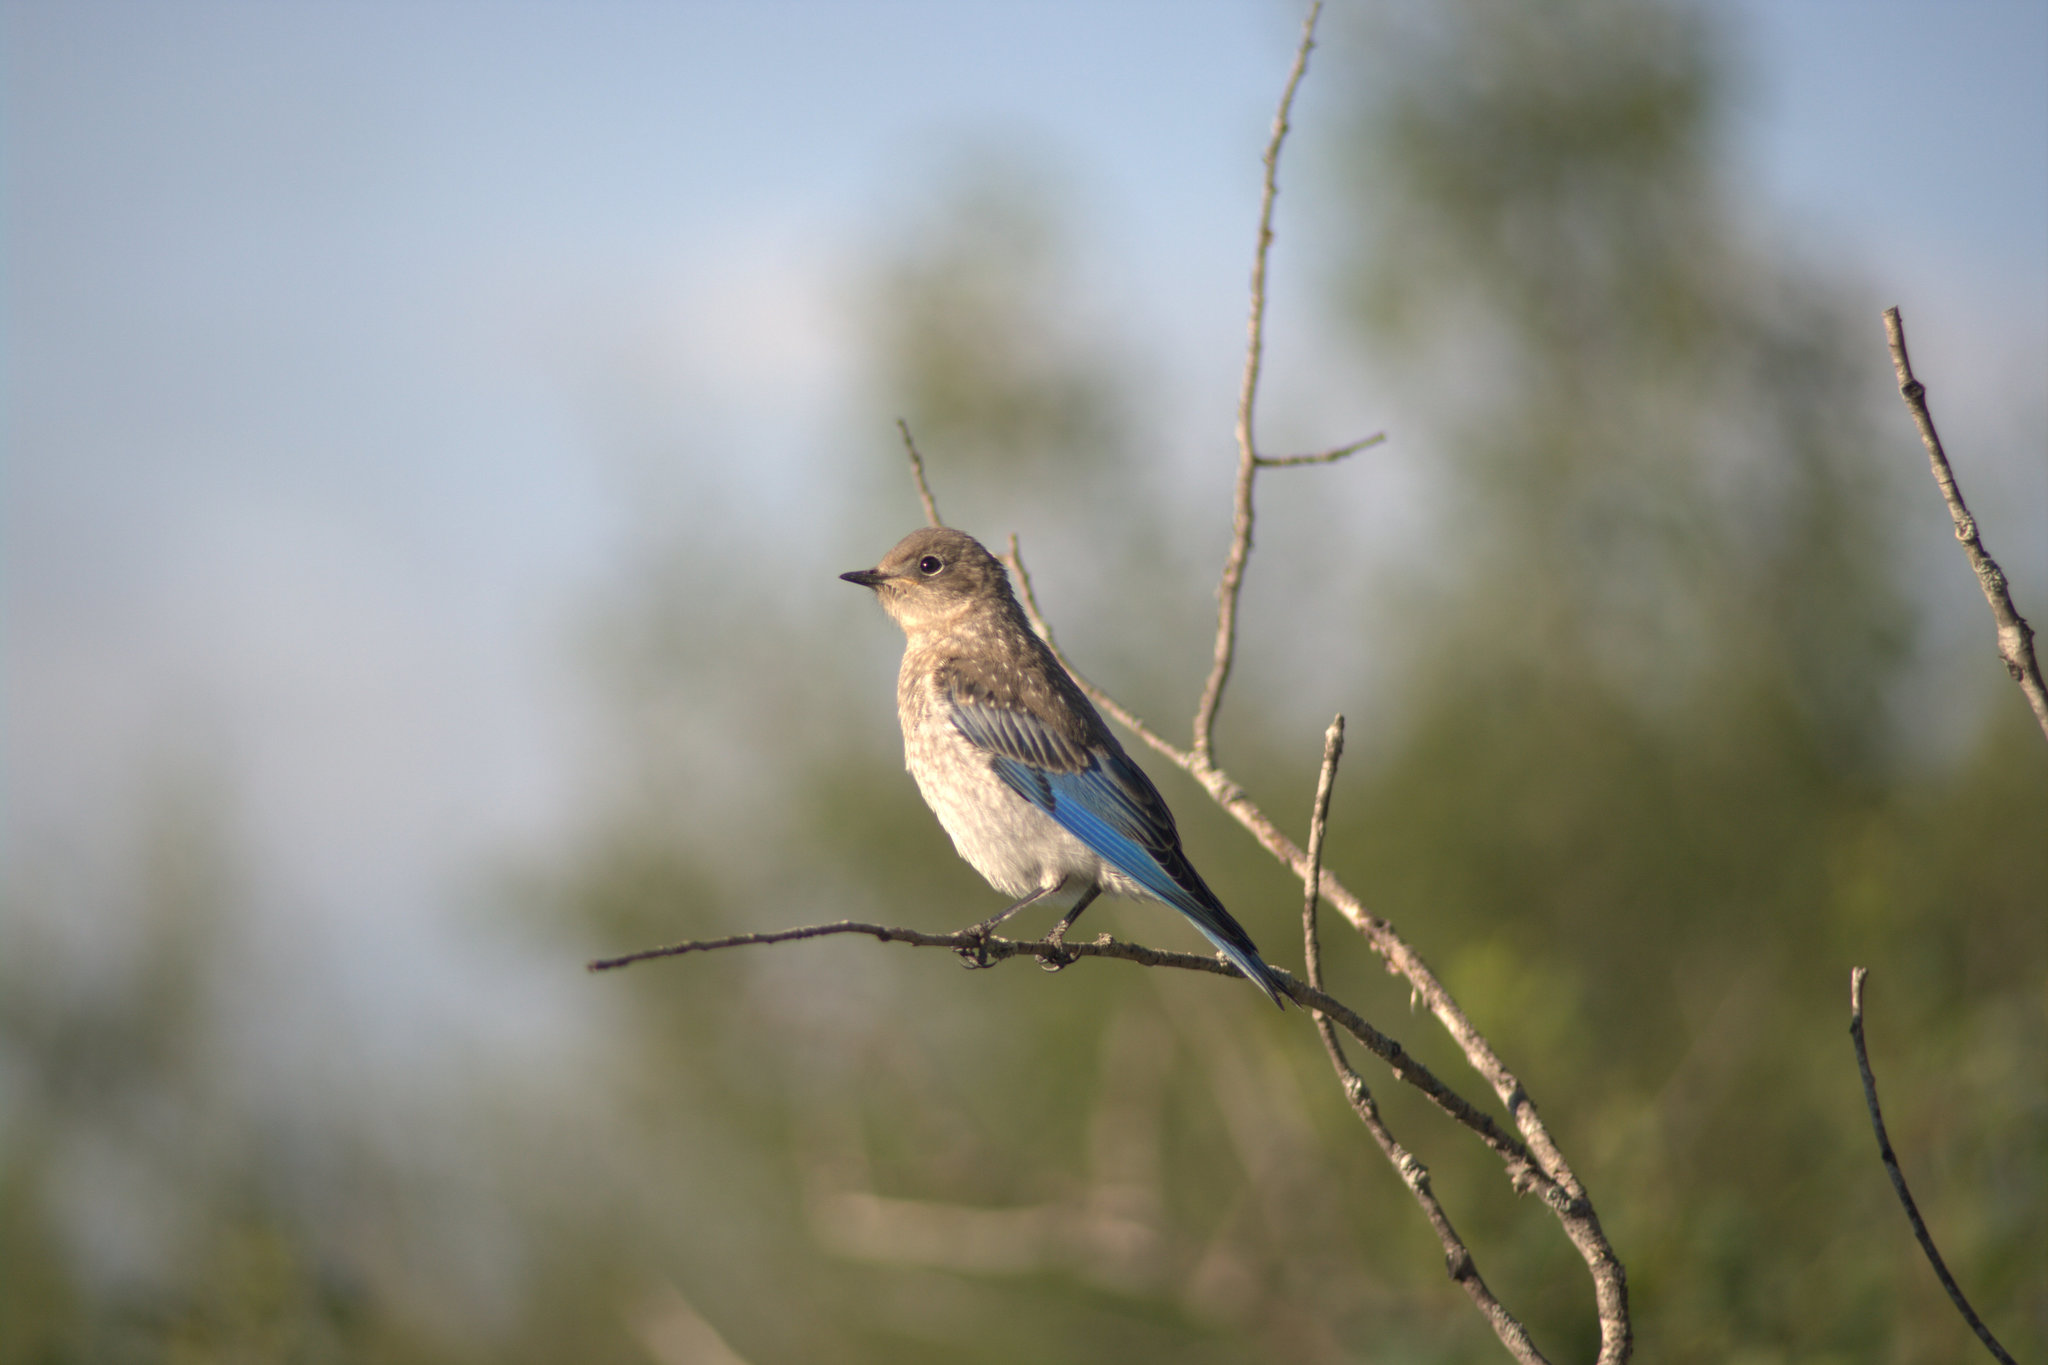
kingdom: Animalia
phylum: Chordata
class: Aves
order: Passeriformes
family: Turdidae
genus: Sialia
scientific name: Sialia currucoides
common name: Mountain bluebird
